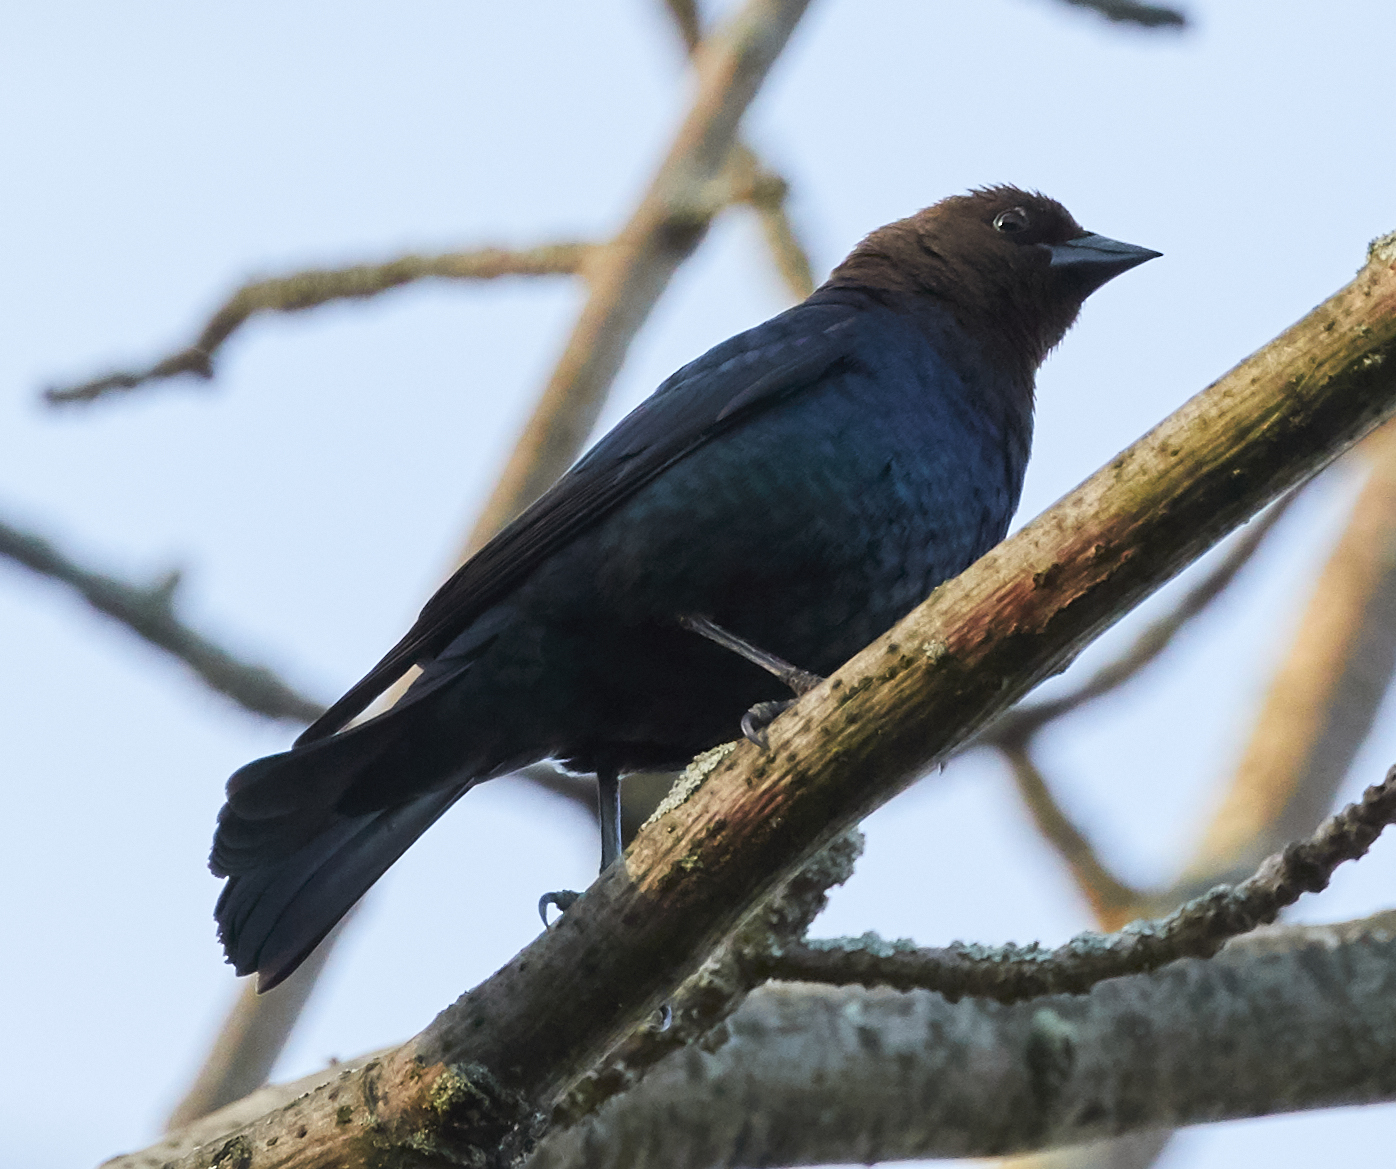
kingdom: Animalia
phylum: Chordata
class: Aves
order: Passeriformes
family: Icteridae
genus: Molothrus
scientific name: Molothrus ater
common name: Brown-headed cowbird
